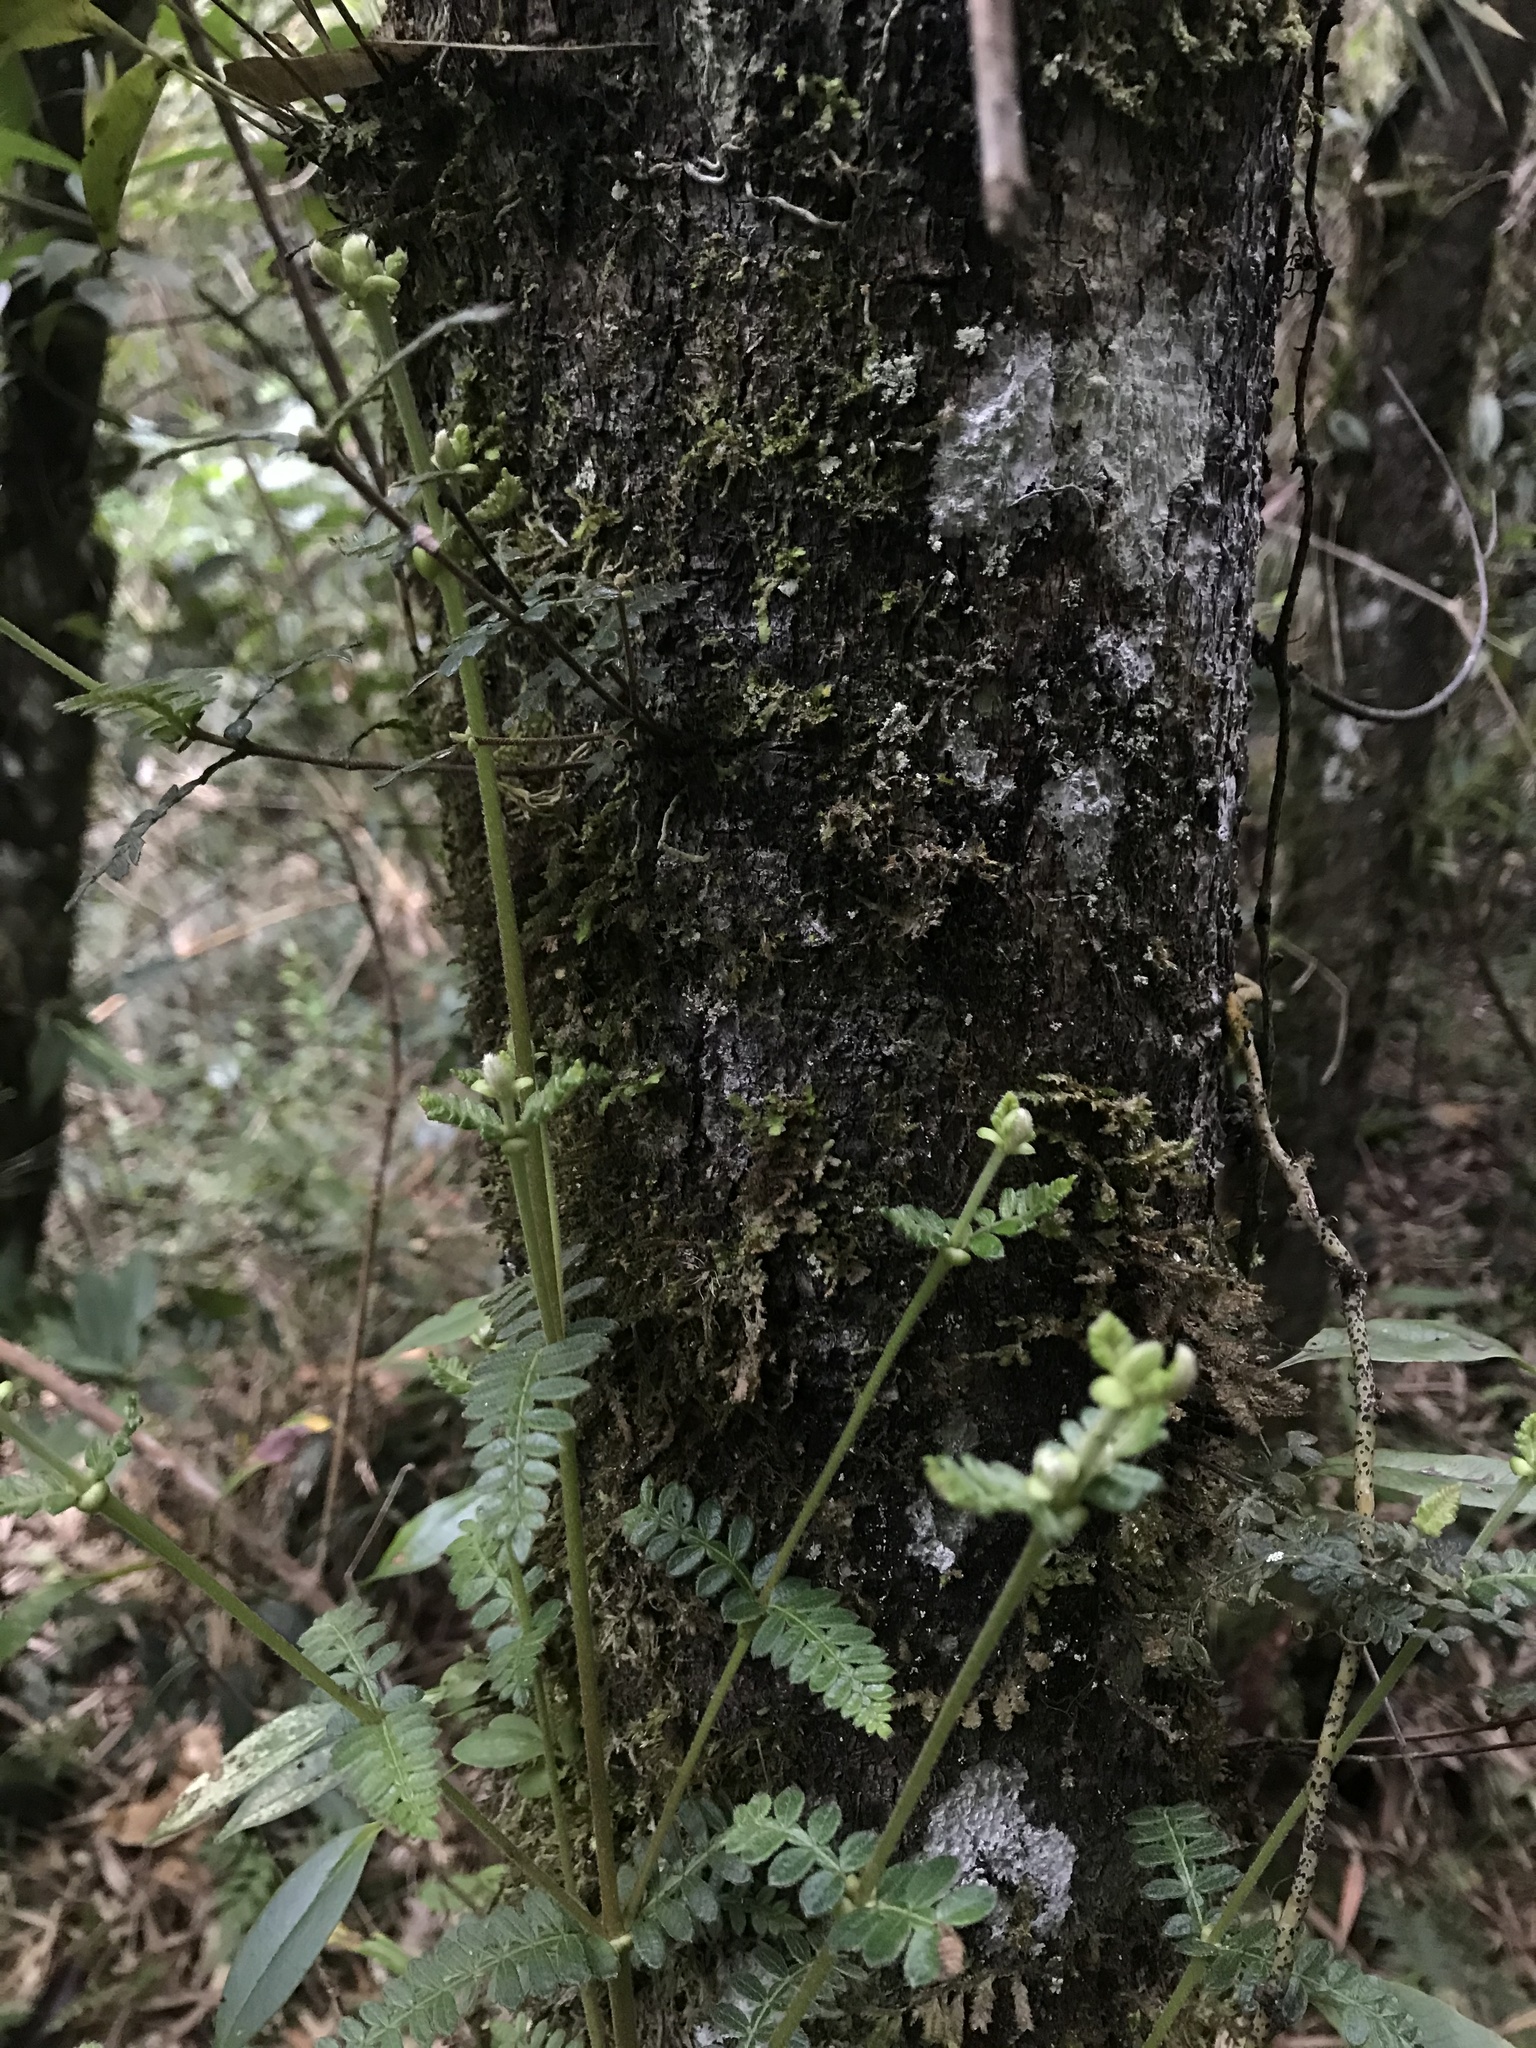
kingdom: Plantae
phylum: Tracheophyta
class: Magnoliopsida
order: Oxalidales
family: Cunoniaceae
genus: Weinmannia
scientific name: Weinmannia tomentosa
